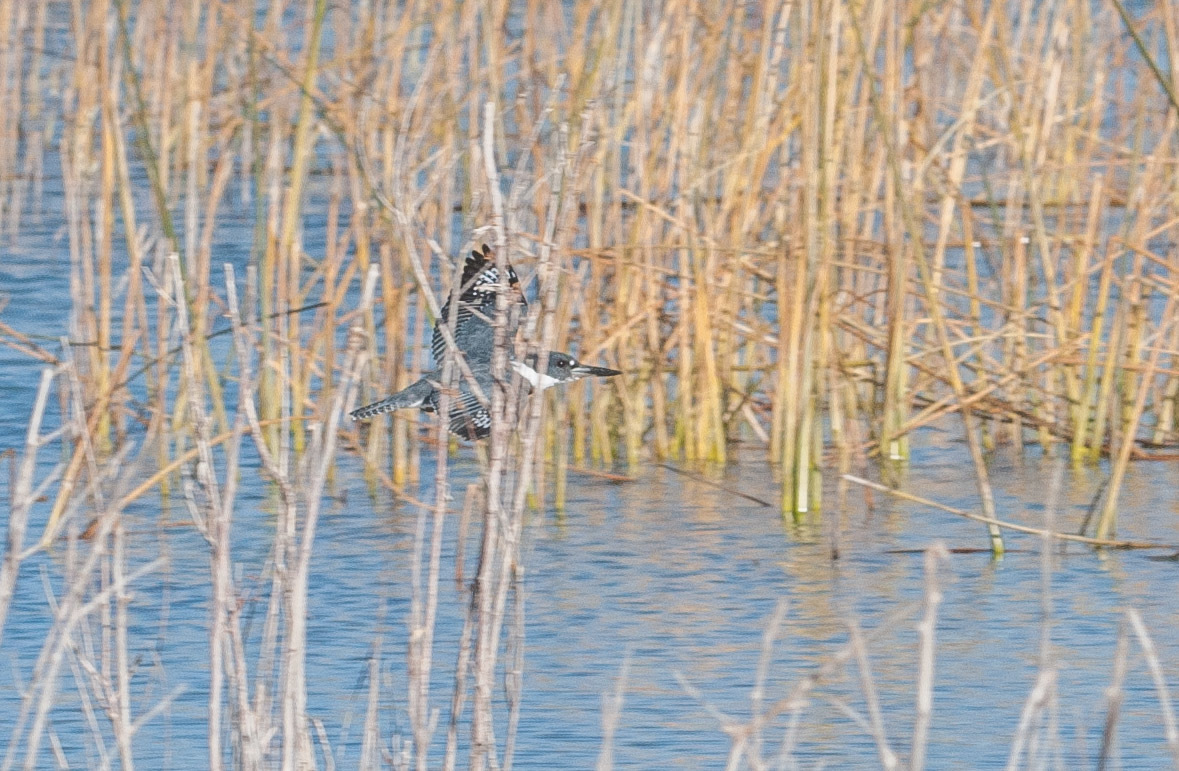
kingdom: Animalia
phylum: Chordata
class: Aves
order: Coraciiformes
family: Alcedinidae
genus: Megaceryle
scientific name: Megaceryle alcyon
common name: Belted kingfisher
